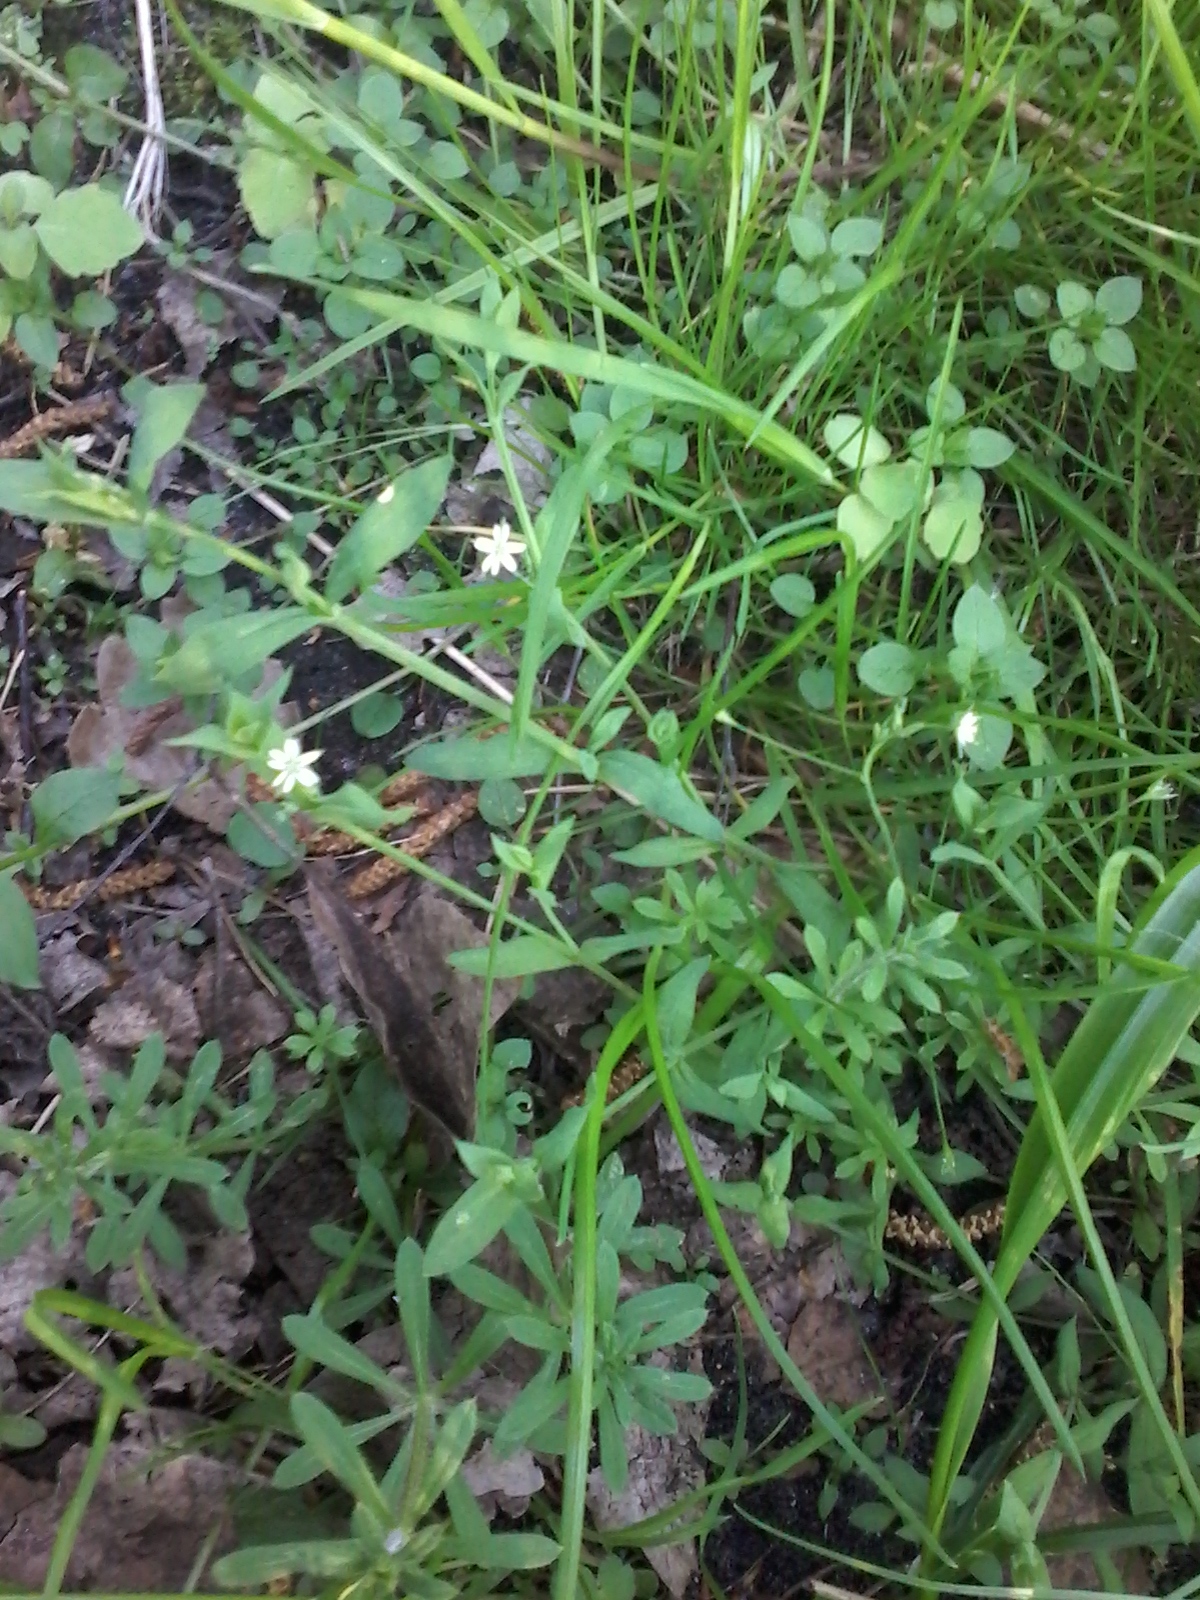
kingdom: Plantae
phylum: Tracheophyta
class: Magnoliopsida
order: Caryophyllales
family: Caryophyllaceae
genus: Stellaria
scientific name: Stellaria alsine
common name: Bog stitchwort
